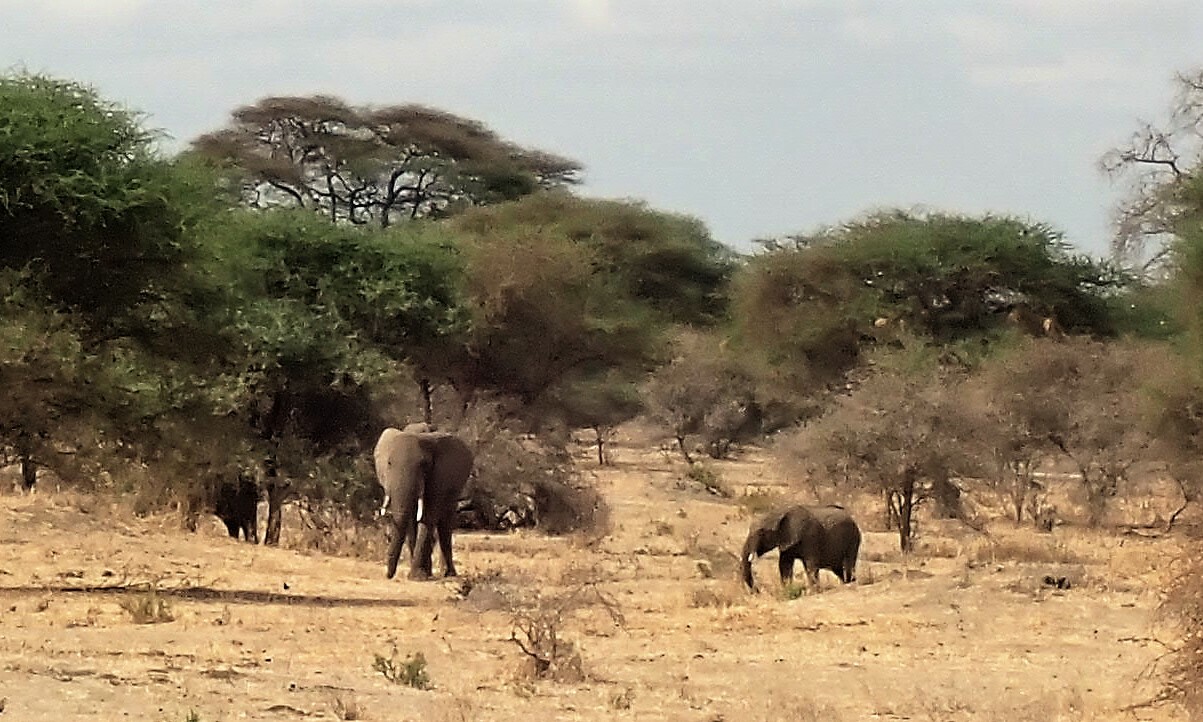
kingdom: Animalia
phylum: Chordata
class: Mammalia
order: Proboscidea
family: Elephantidae
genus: Loxodonta
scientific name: Loxodonta africana
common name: African elephant
